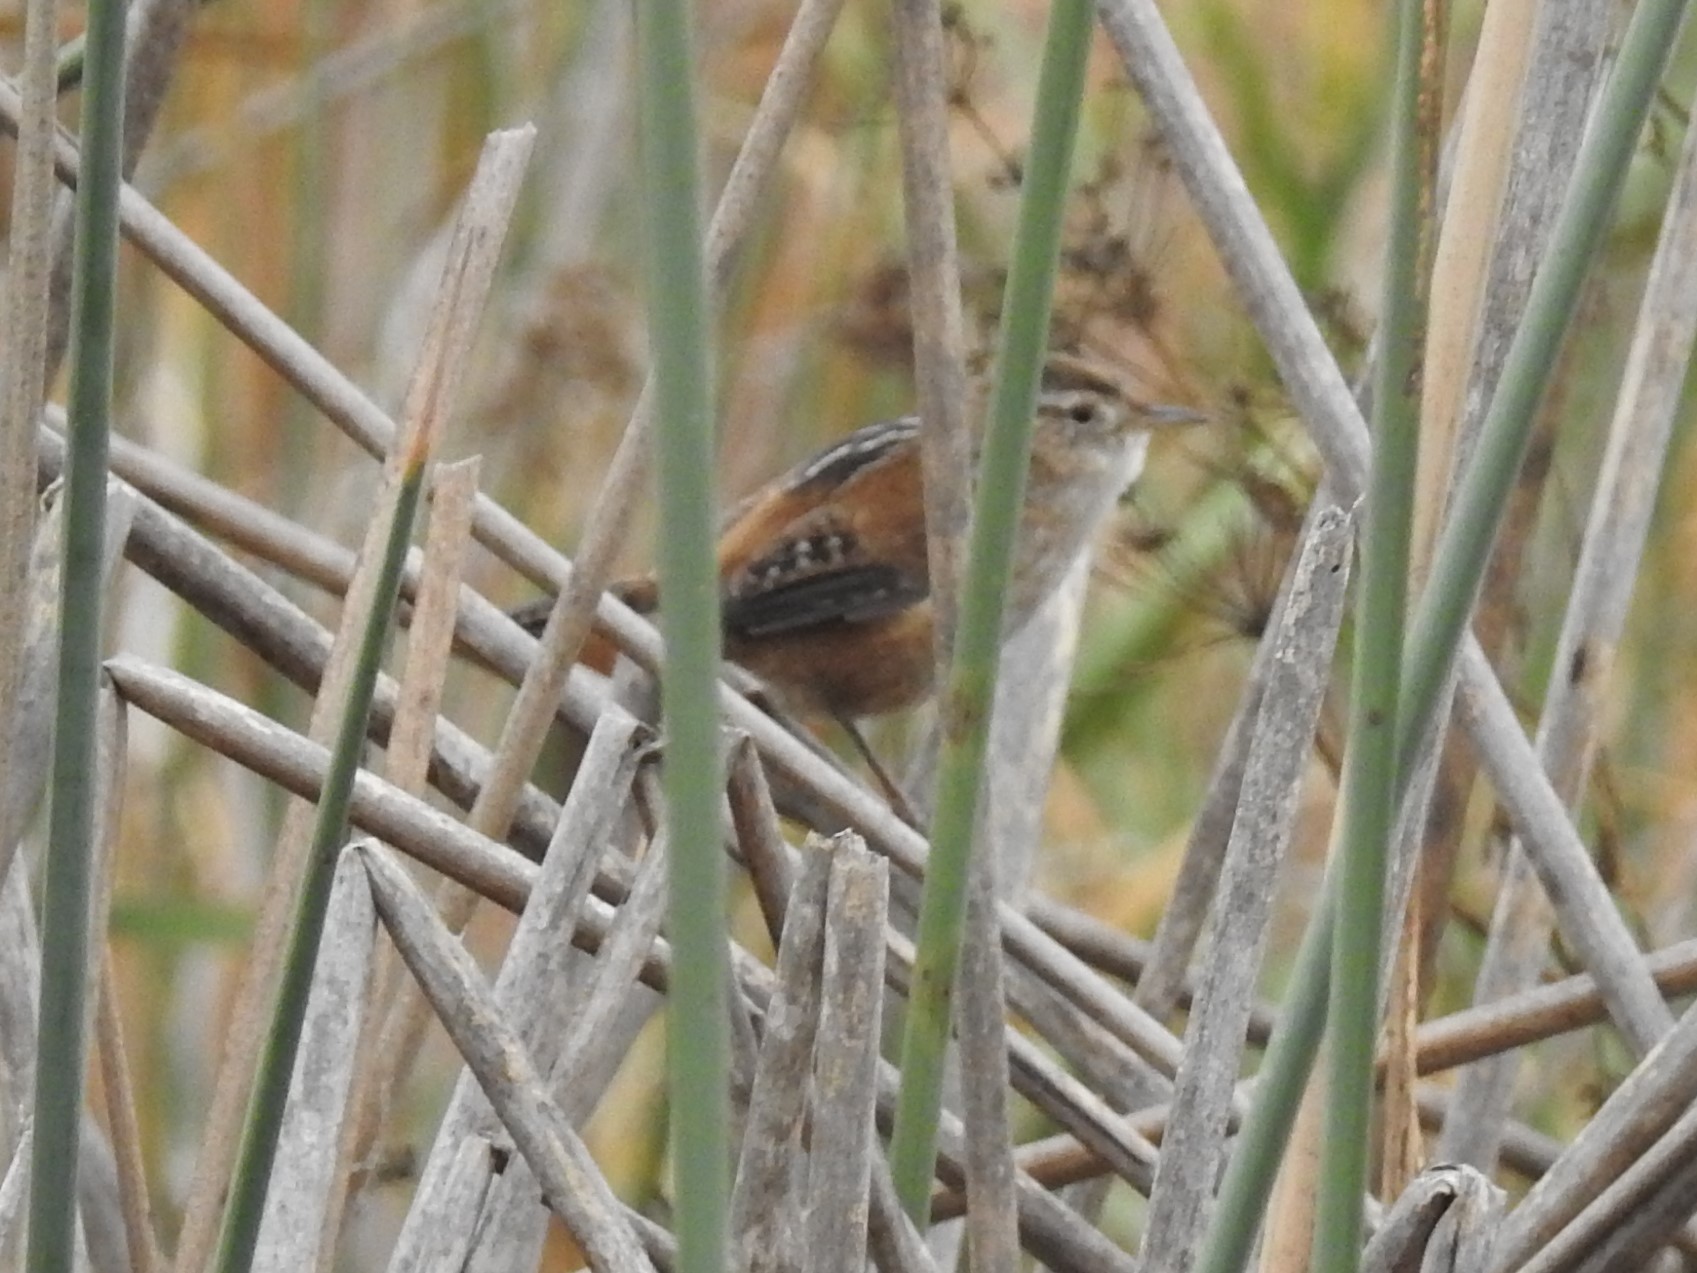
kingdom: Animalia
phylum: Chordata
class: Aves
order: Passeriformes
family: Troglodytidae
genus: Cistothorus
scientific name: Cistothorus palustris
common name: Marsh wren
